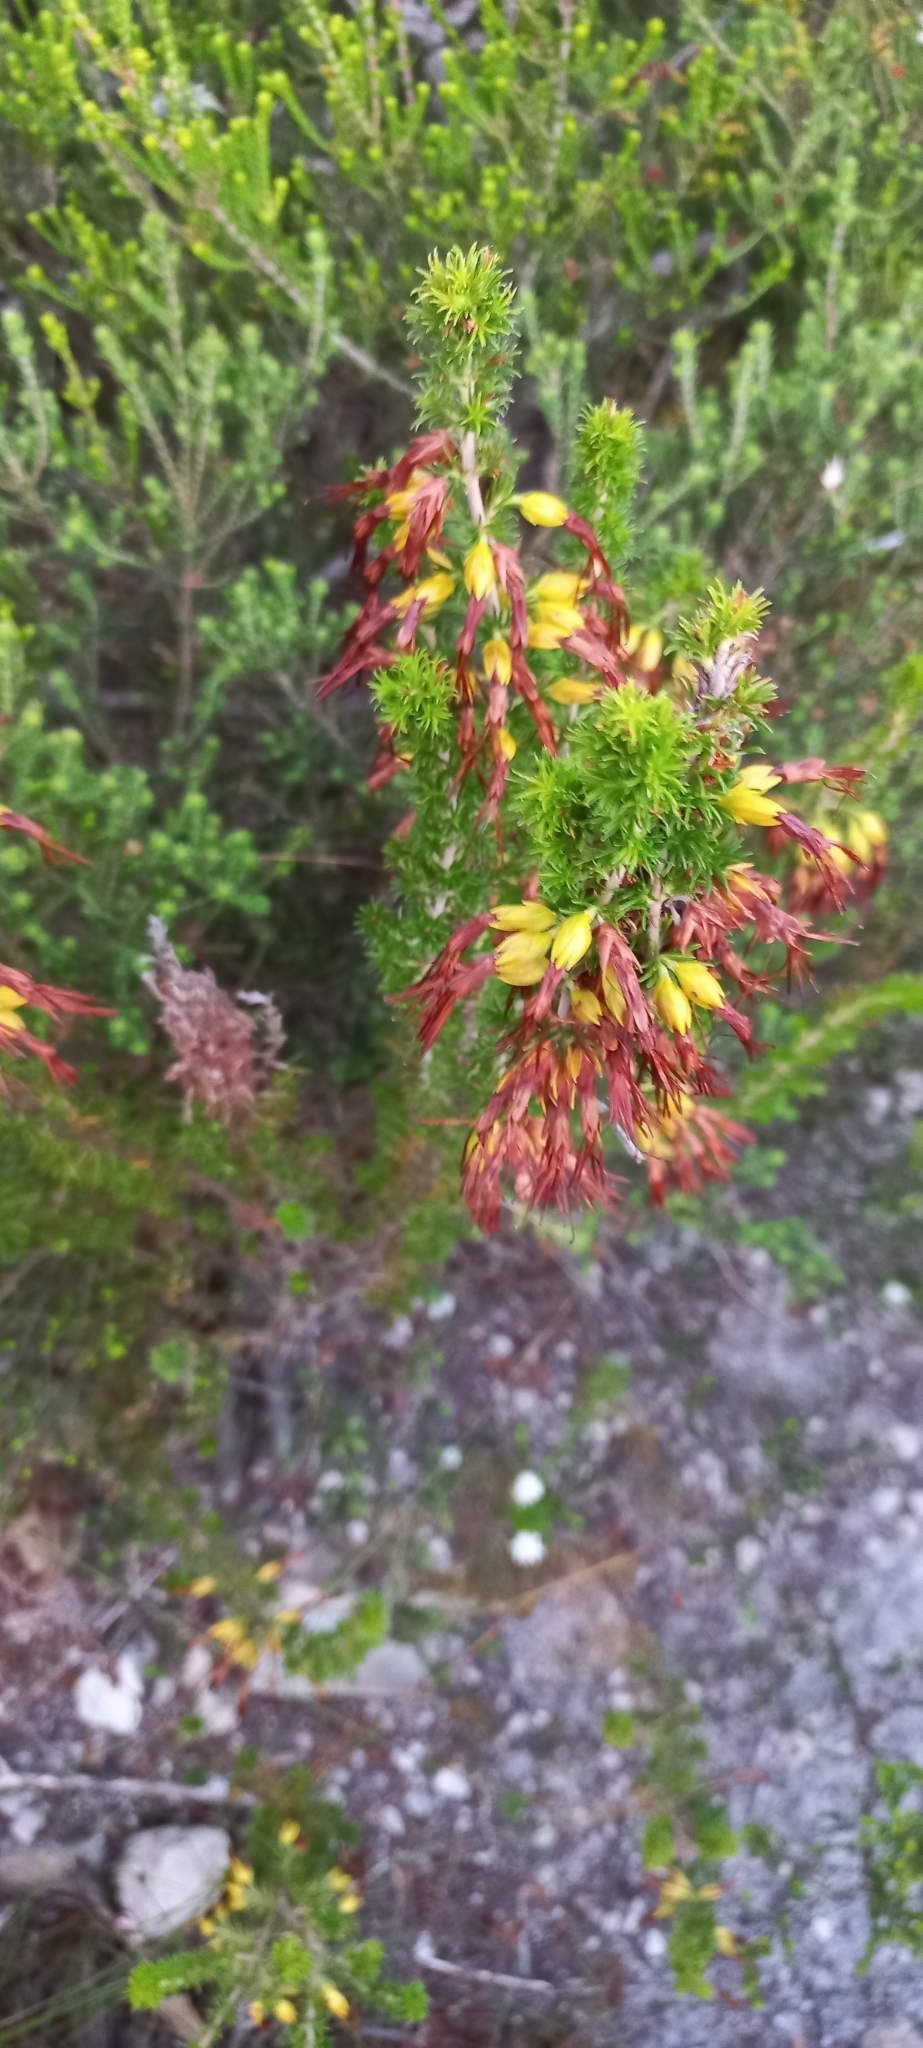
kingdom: Plantae
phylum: Tracheophyta
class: Magnoliopsida
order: Ericales
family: Ericaceae
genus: Erica
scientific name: Erica coccinea
